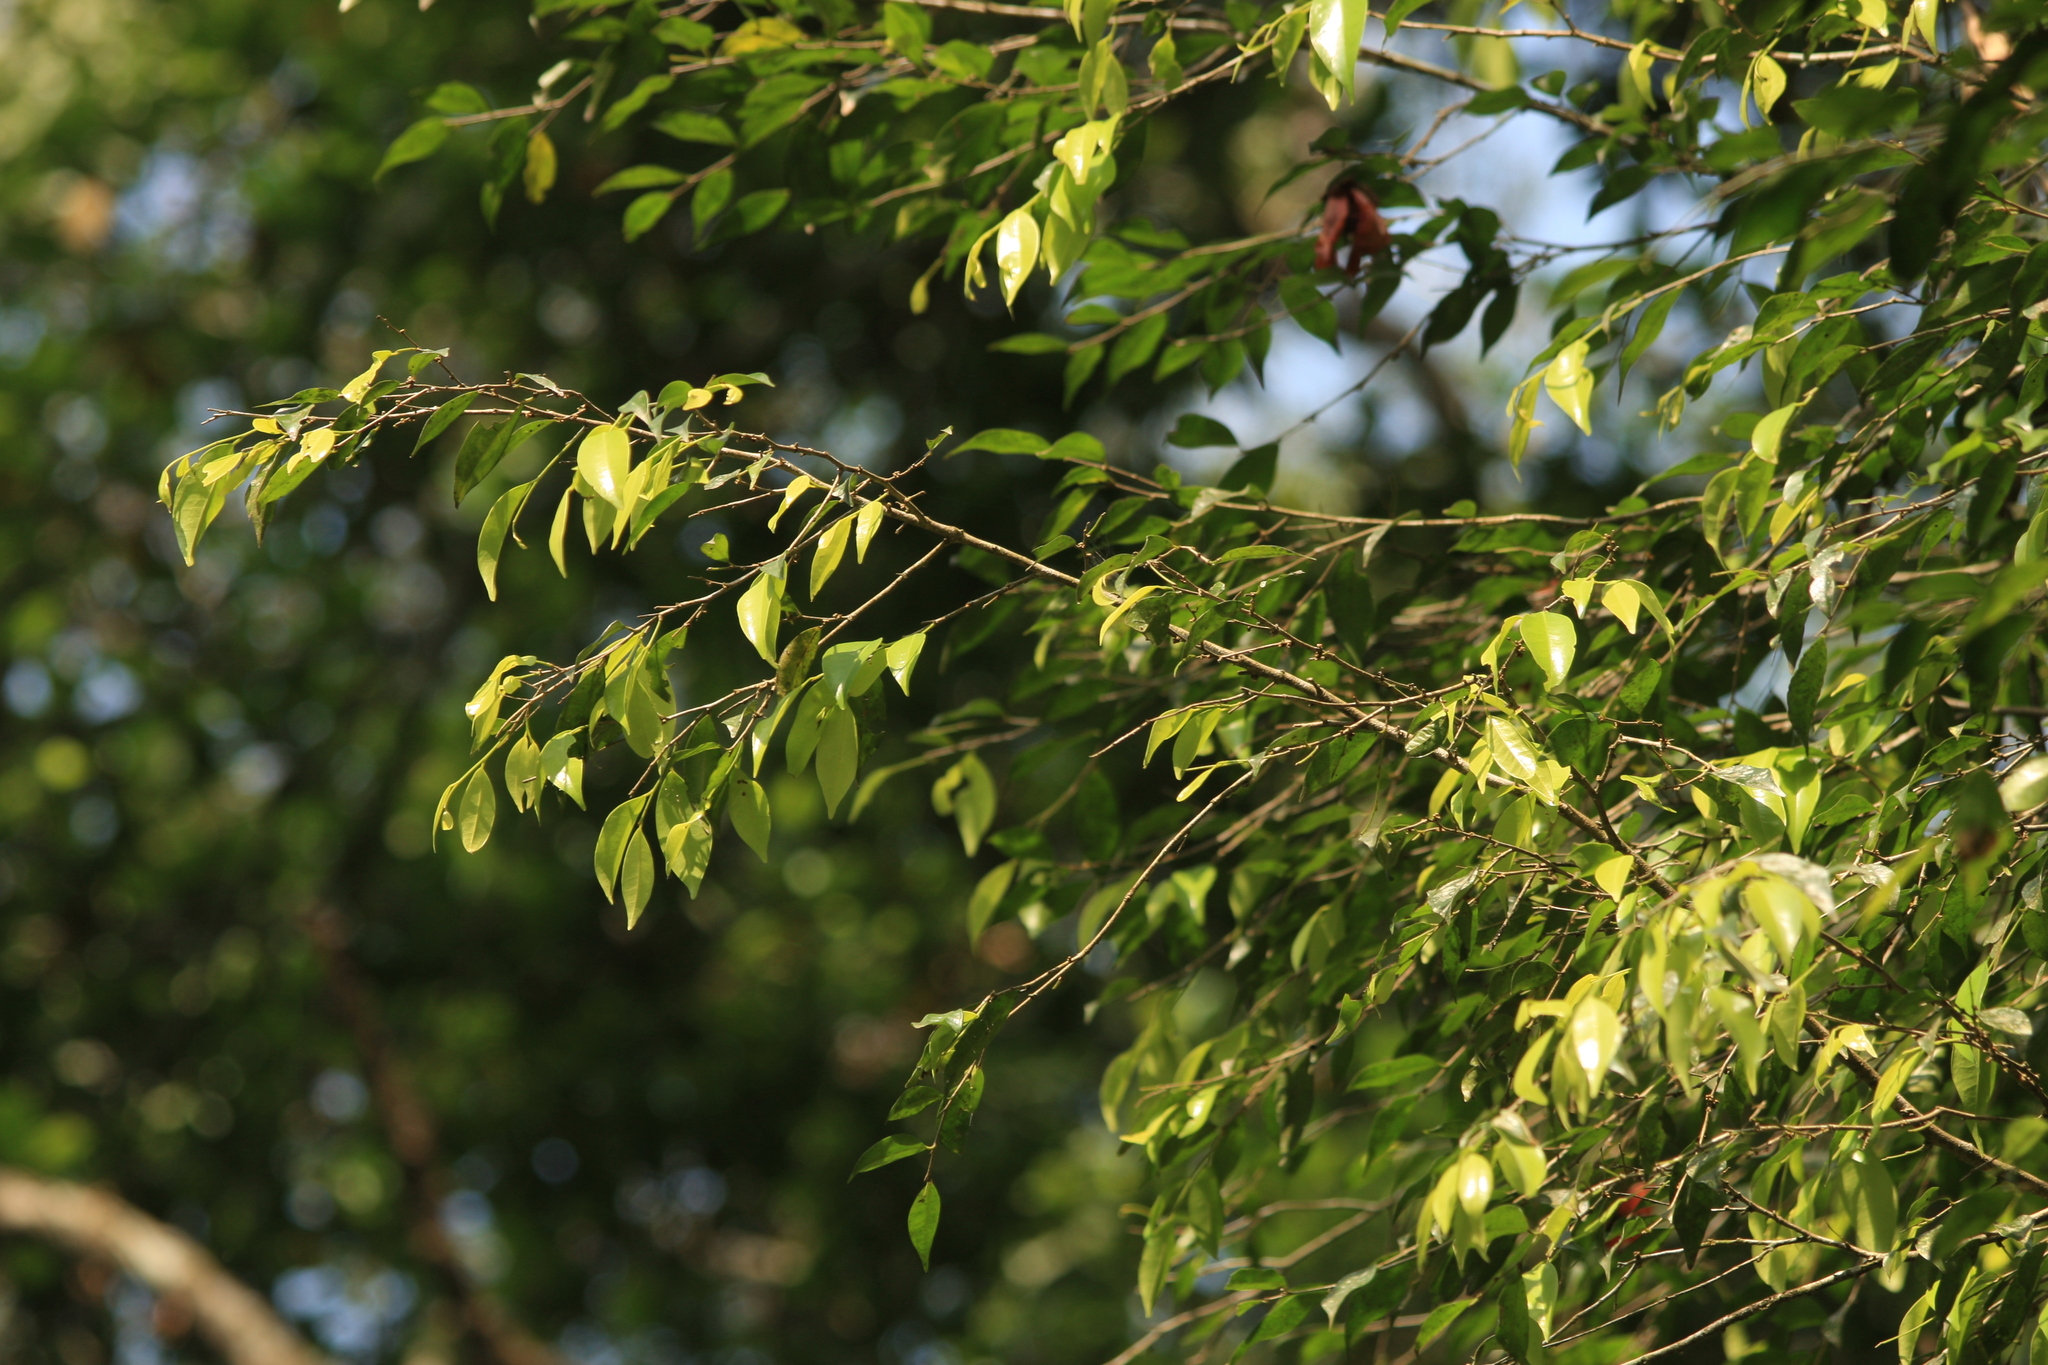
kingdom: Plantae
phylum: Tracheophyta
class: Magnoliopsida
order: Malpighiales
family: Putranjivaceae
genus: Drypetes
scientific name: Drypetes wightii
